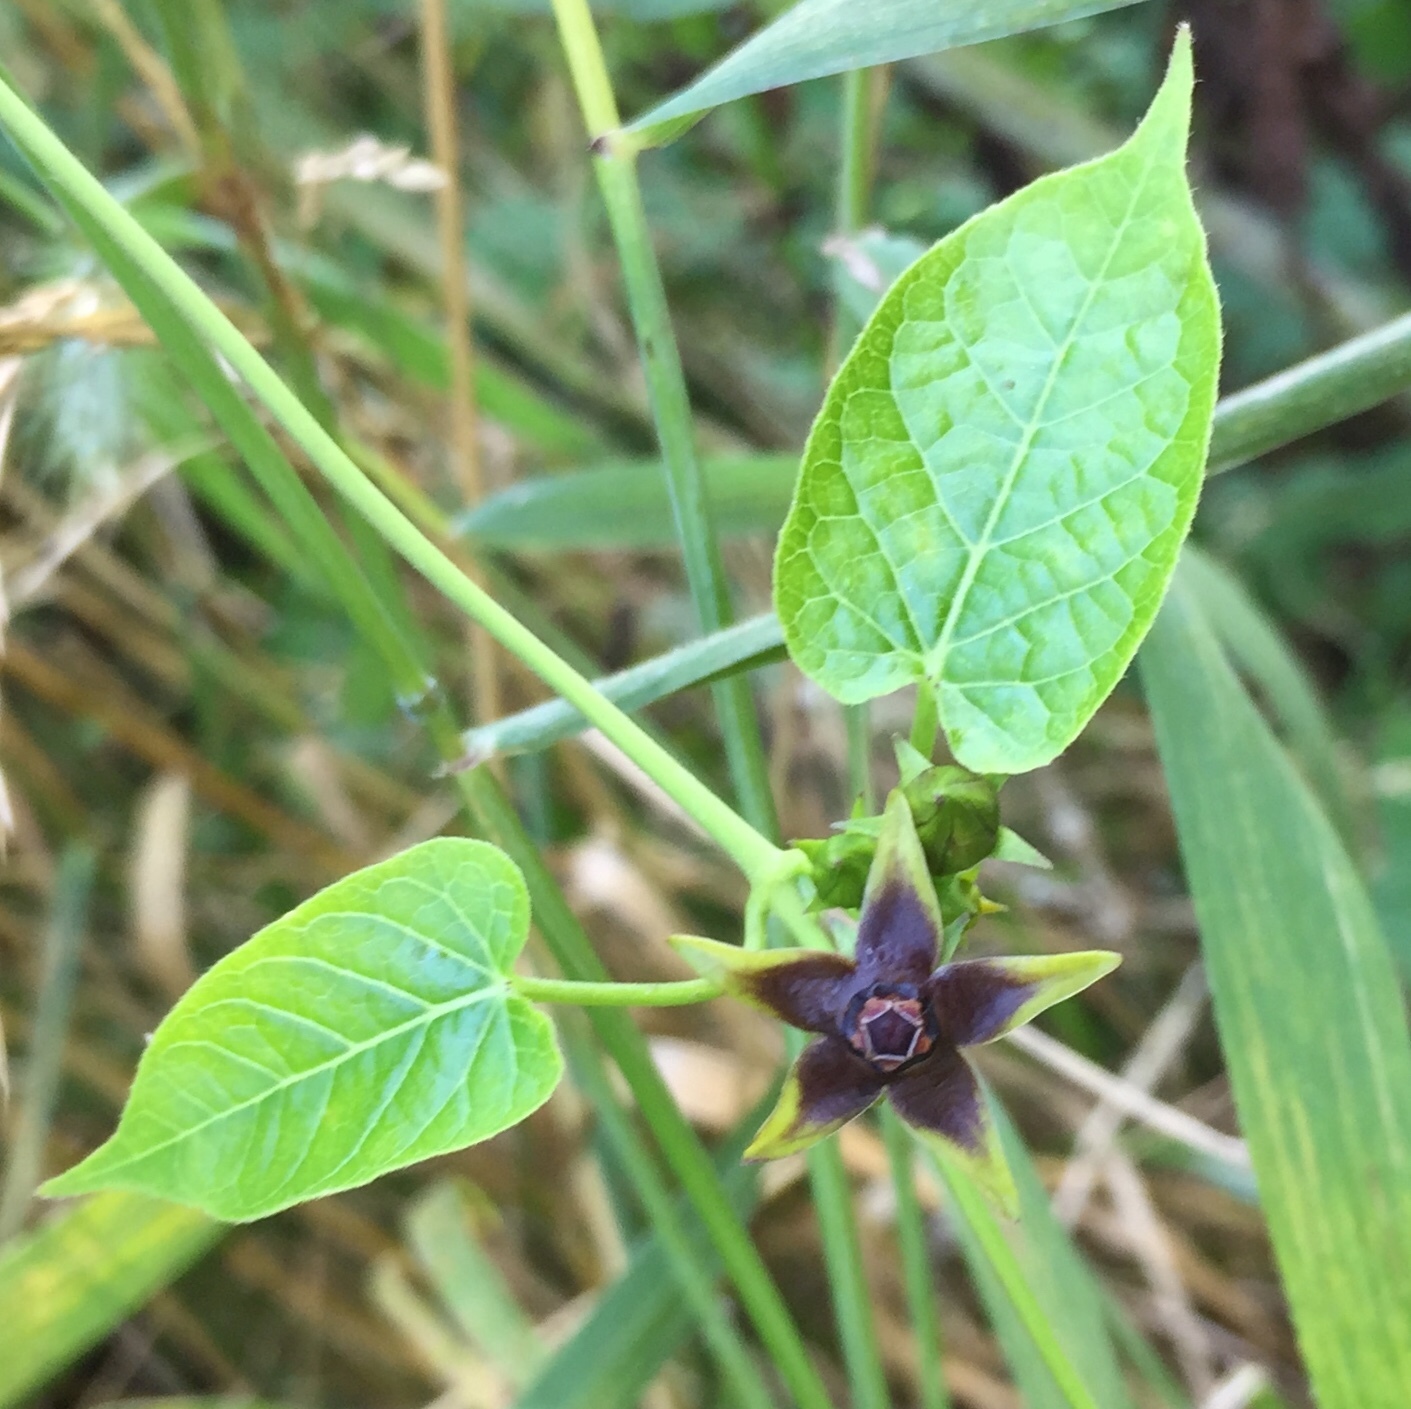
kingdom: Plantae
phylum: Tracheophyta
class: Magnoliopsida
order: Gentianales
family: Apocynaceae
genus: Gonolobus
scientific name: Gonolobus suberosus
